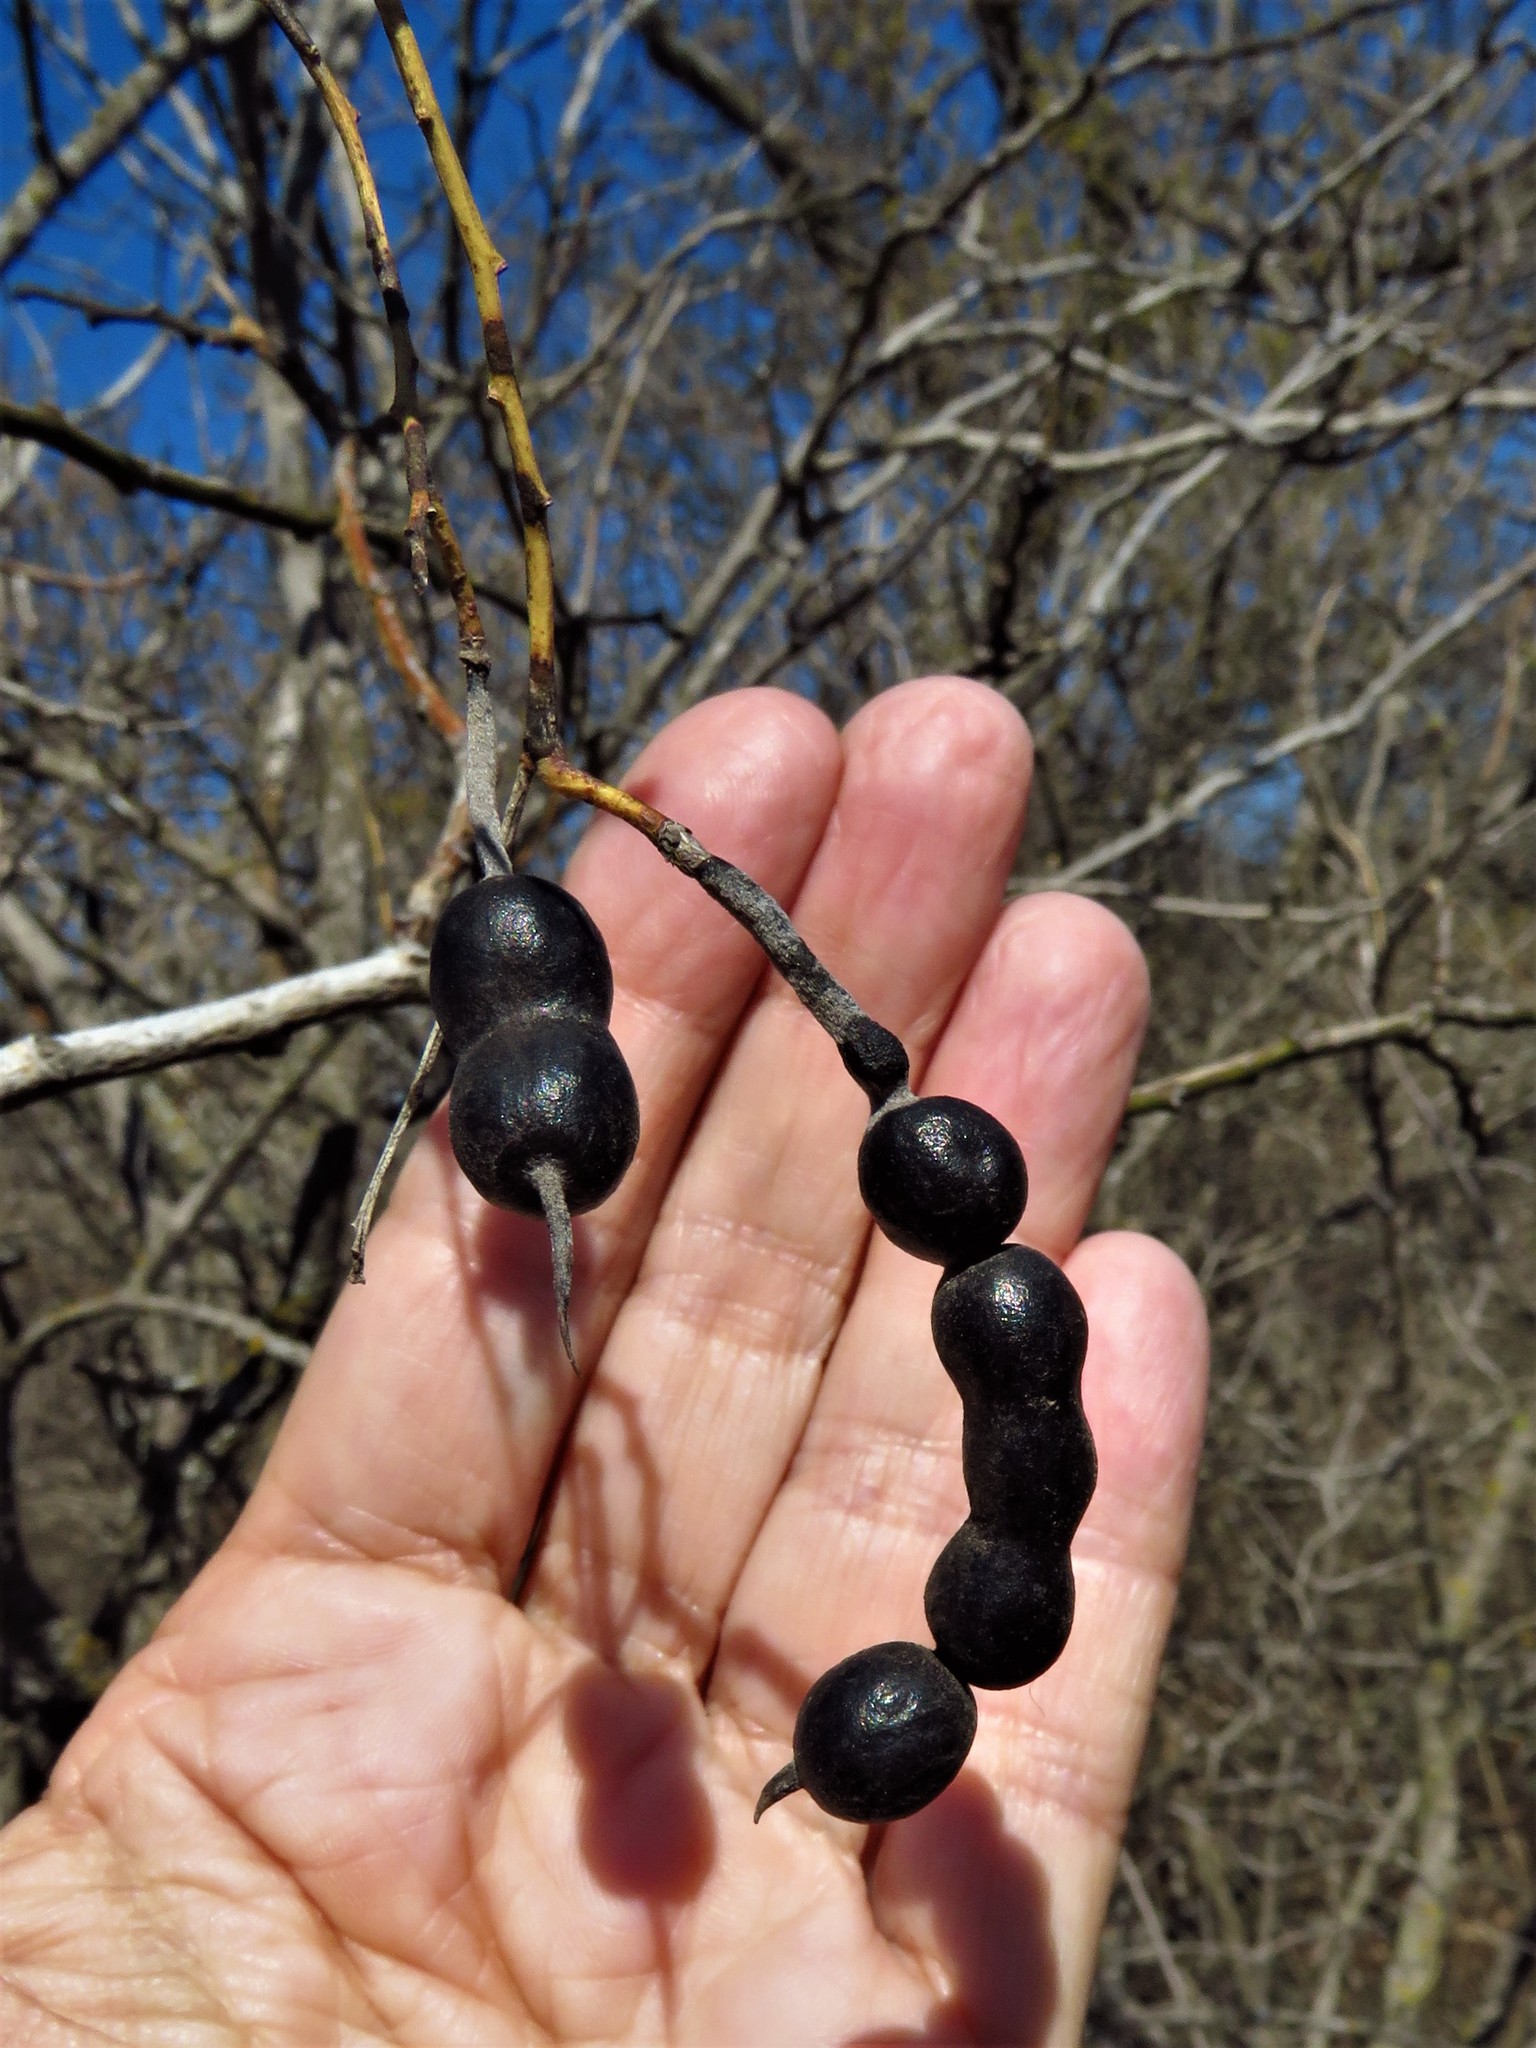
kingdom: Plantae
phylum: Tracheophyta
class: Magnoliopsida
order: Fabales
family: Fabaceae
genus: Styphnolobium
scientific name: Styphnolobium affine
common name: Texas sophora
